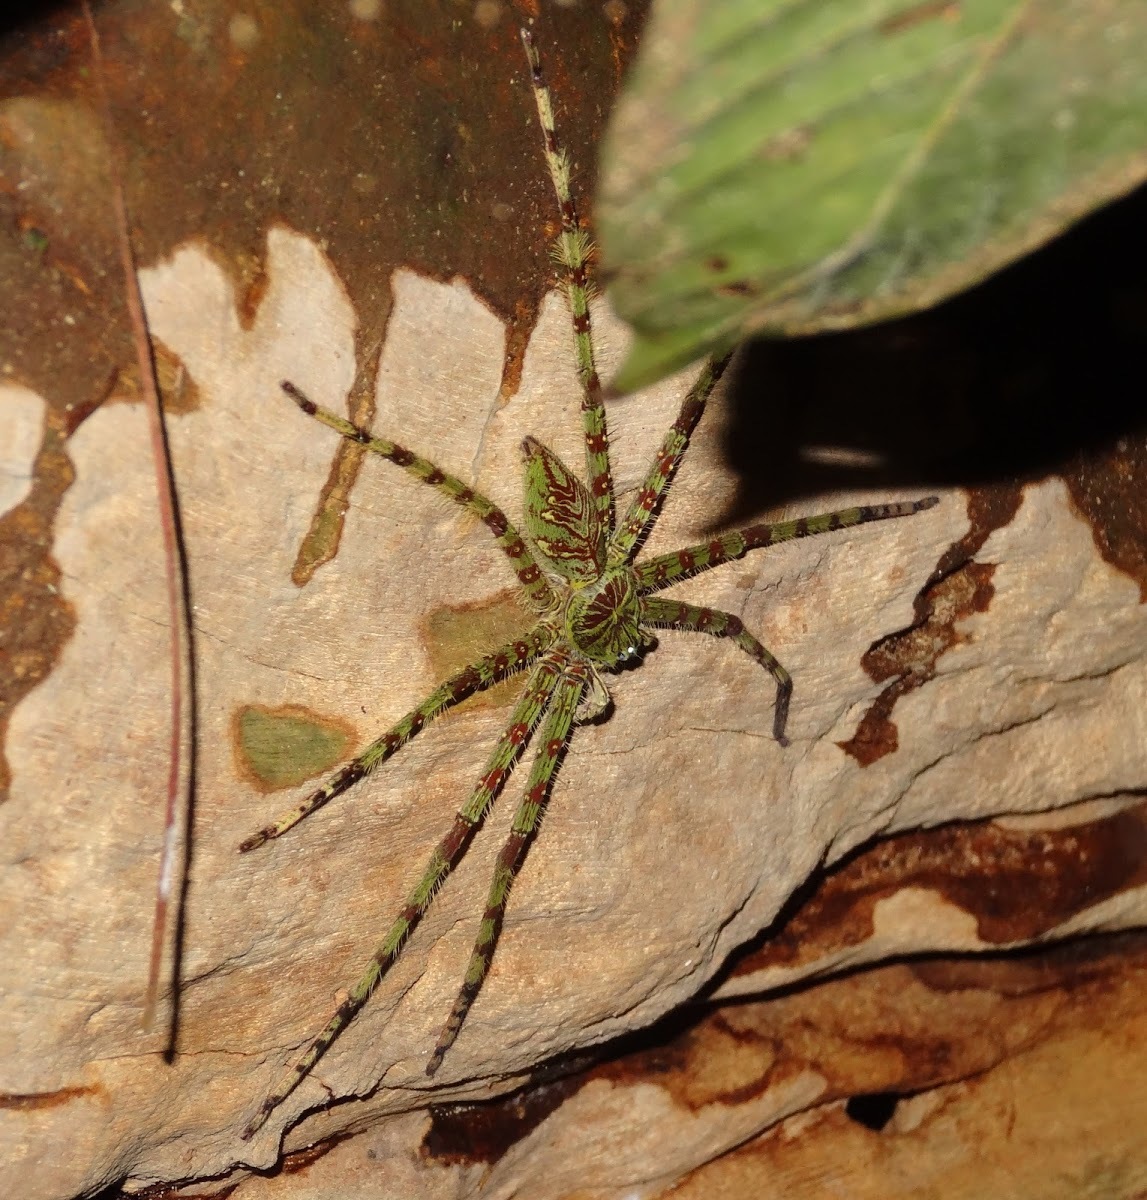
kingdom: Animalia
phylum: Arthropoda
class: Arachnida
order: Araneae
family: Sparassidae
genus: Heteropoda
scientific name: Heteropoda boiei
